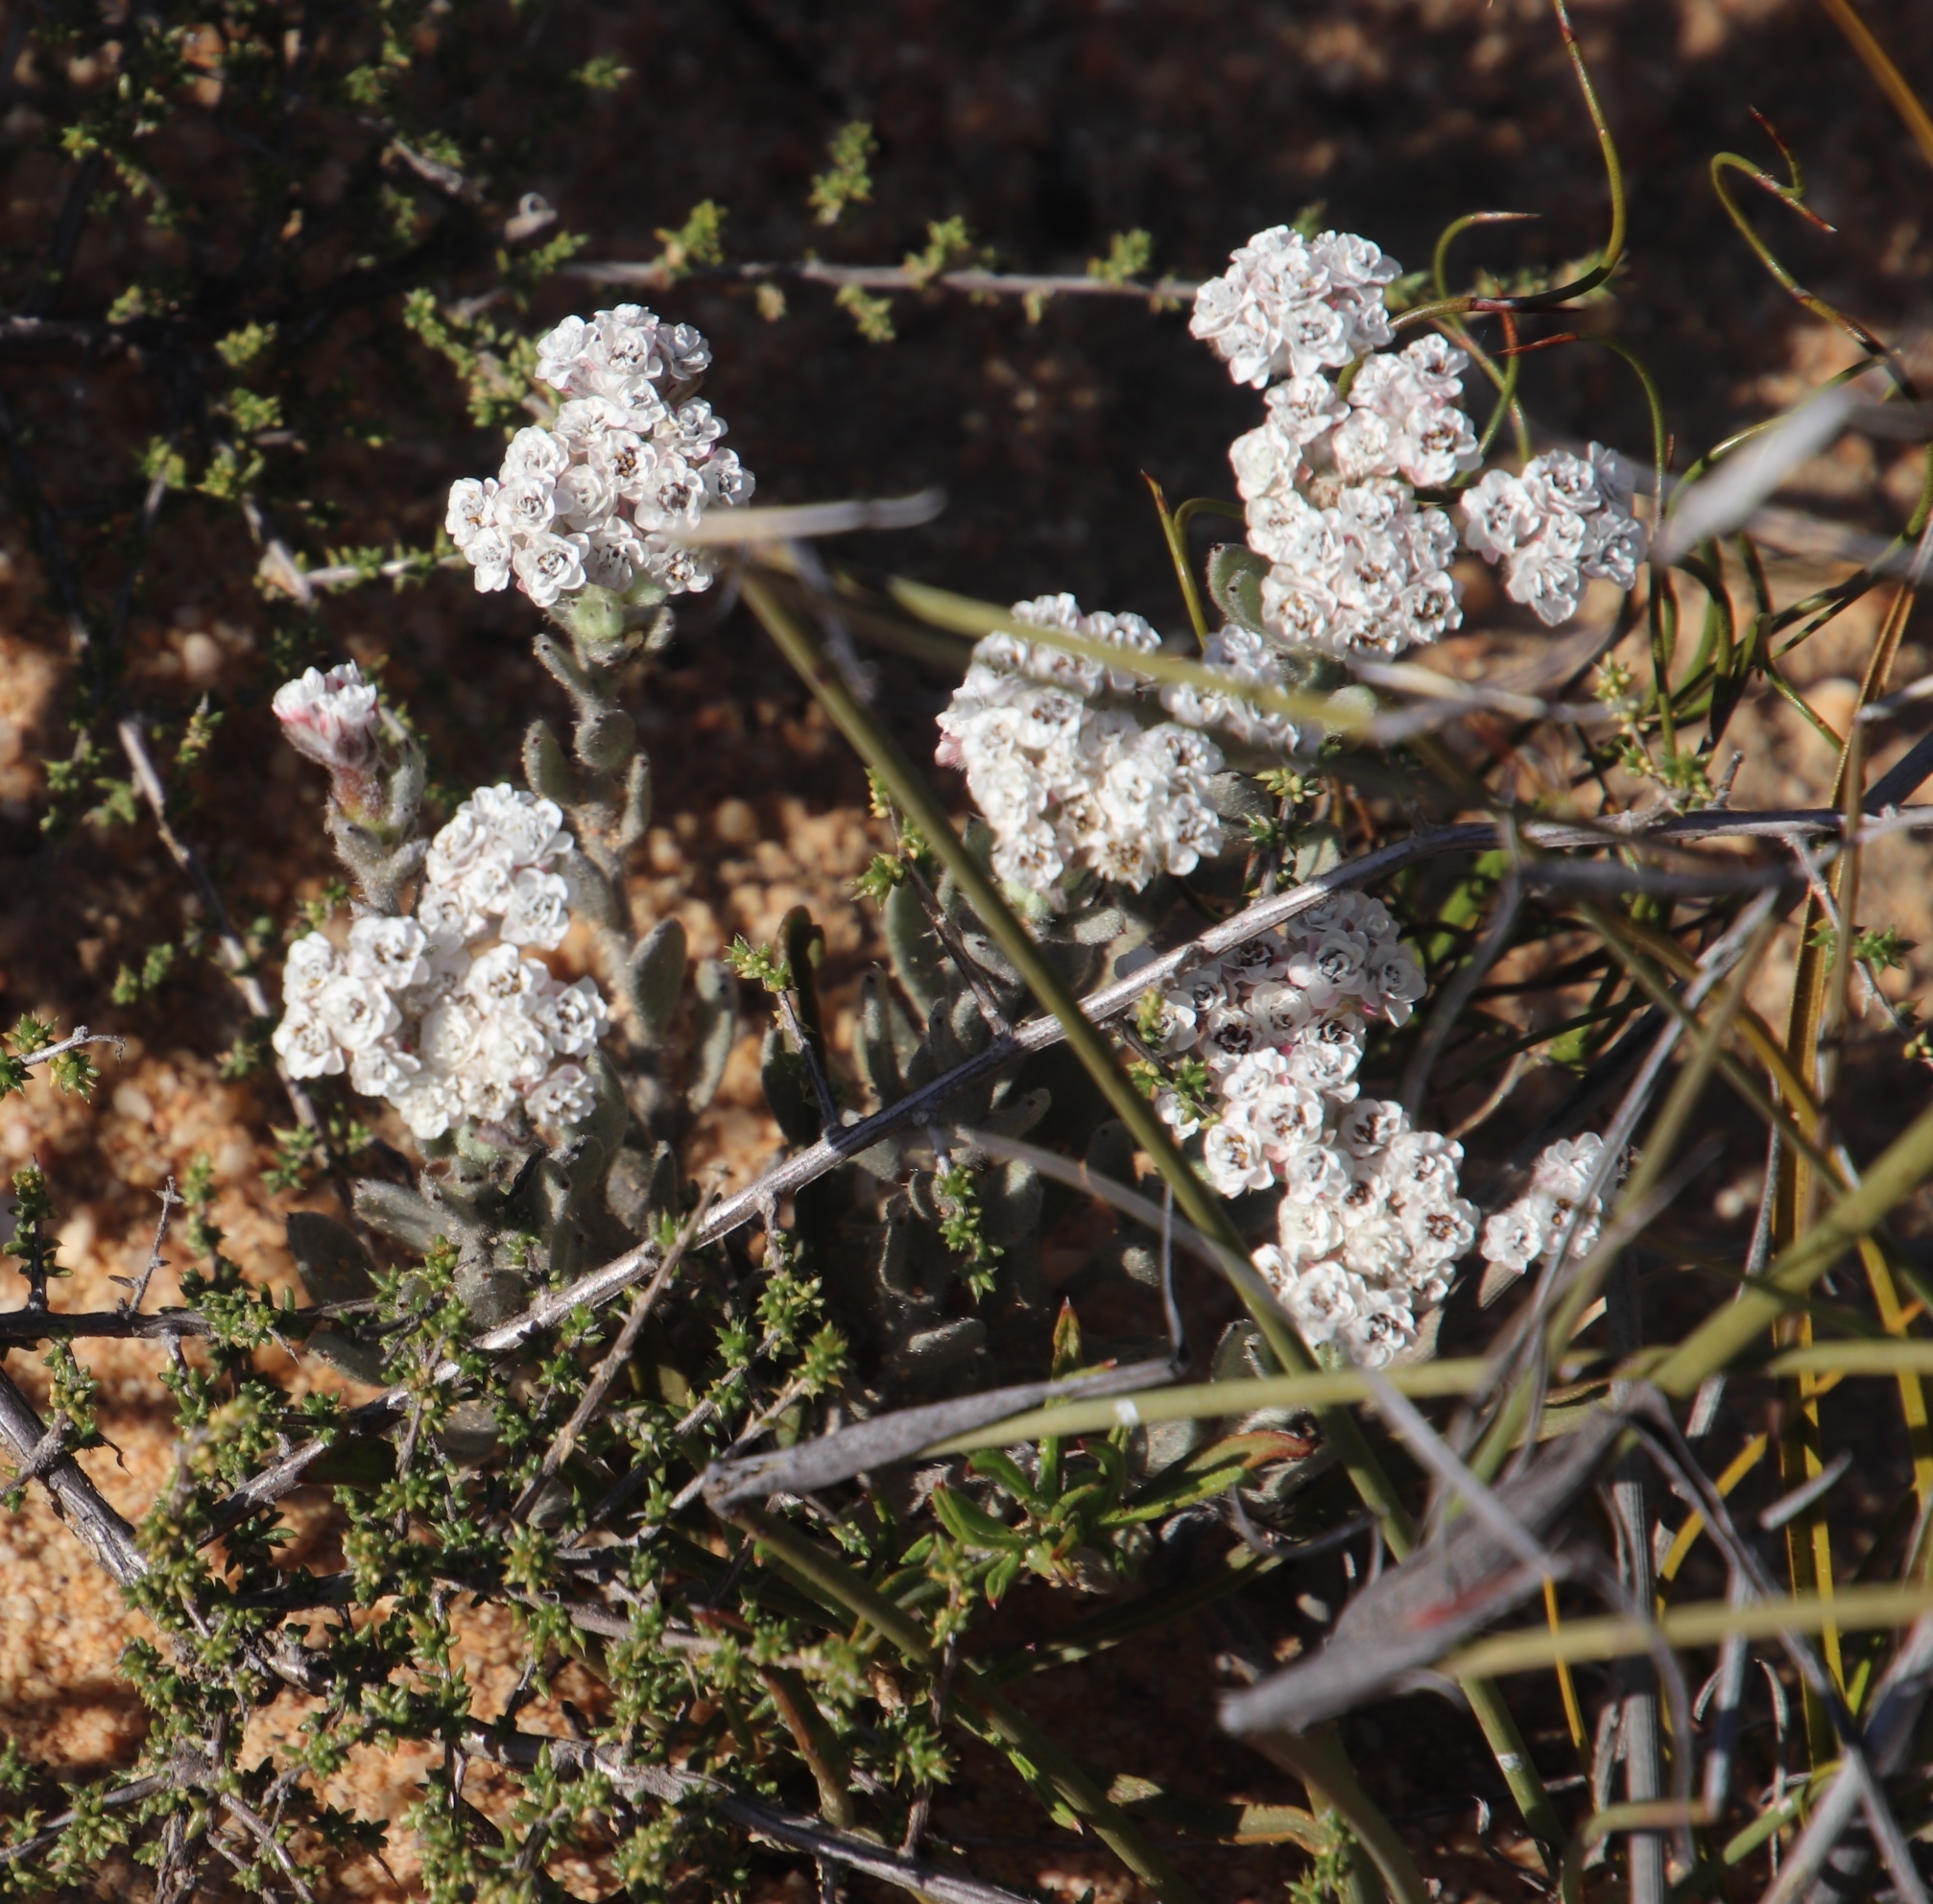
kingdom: Plantae
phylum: Tracheophyta
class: Magnoliopsida
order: Asterales
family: Asteraceae
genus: Petalacte
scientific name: Petalacte coronata
